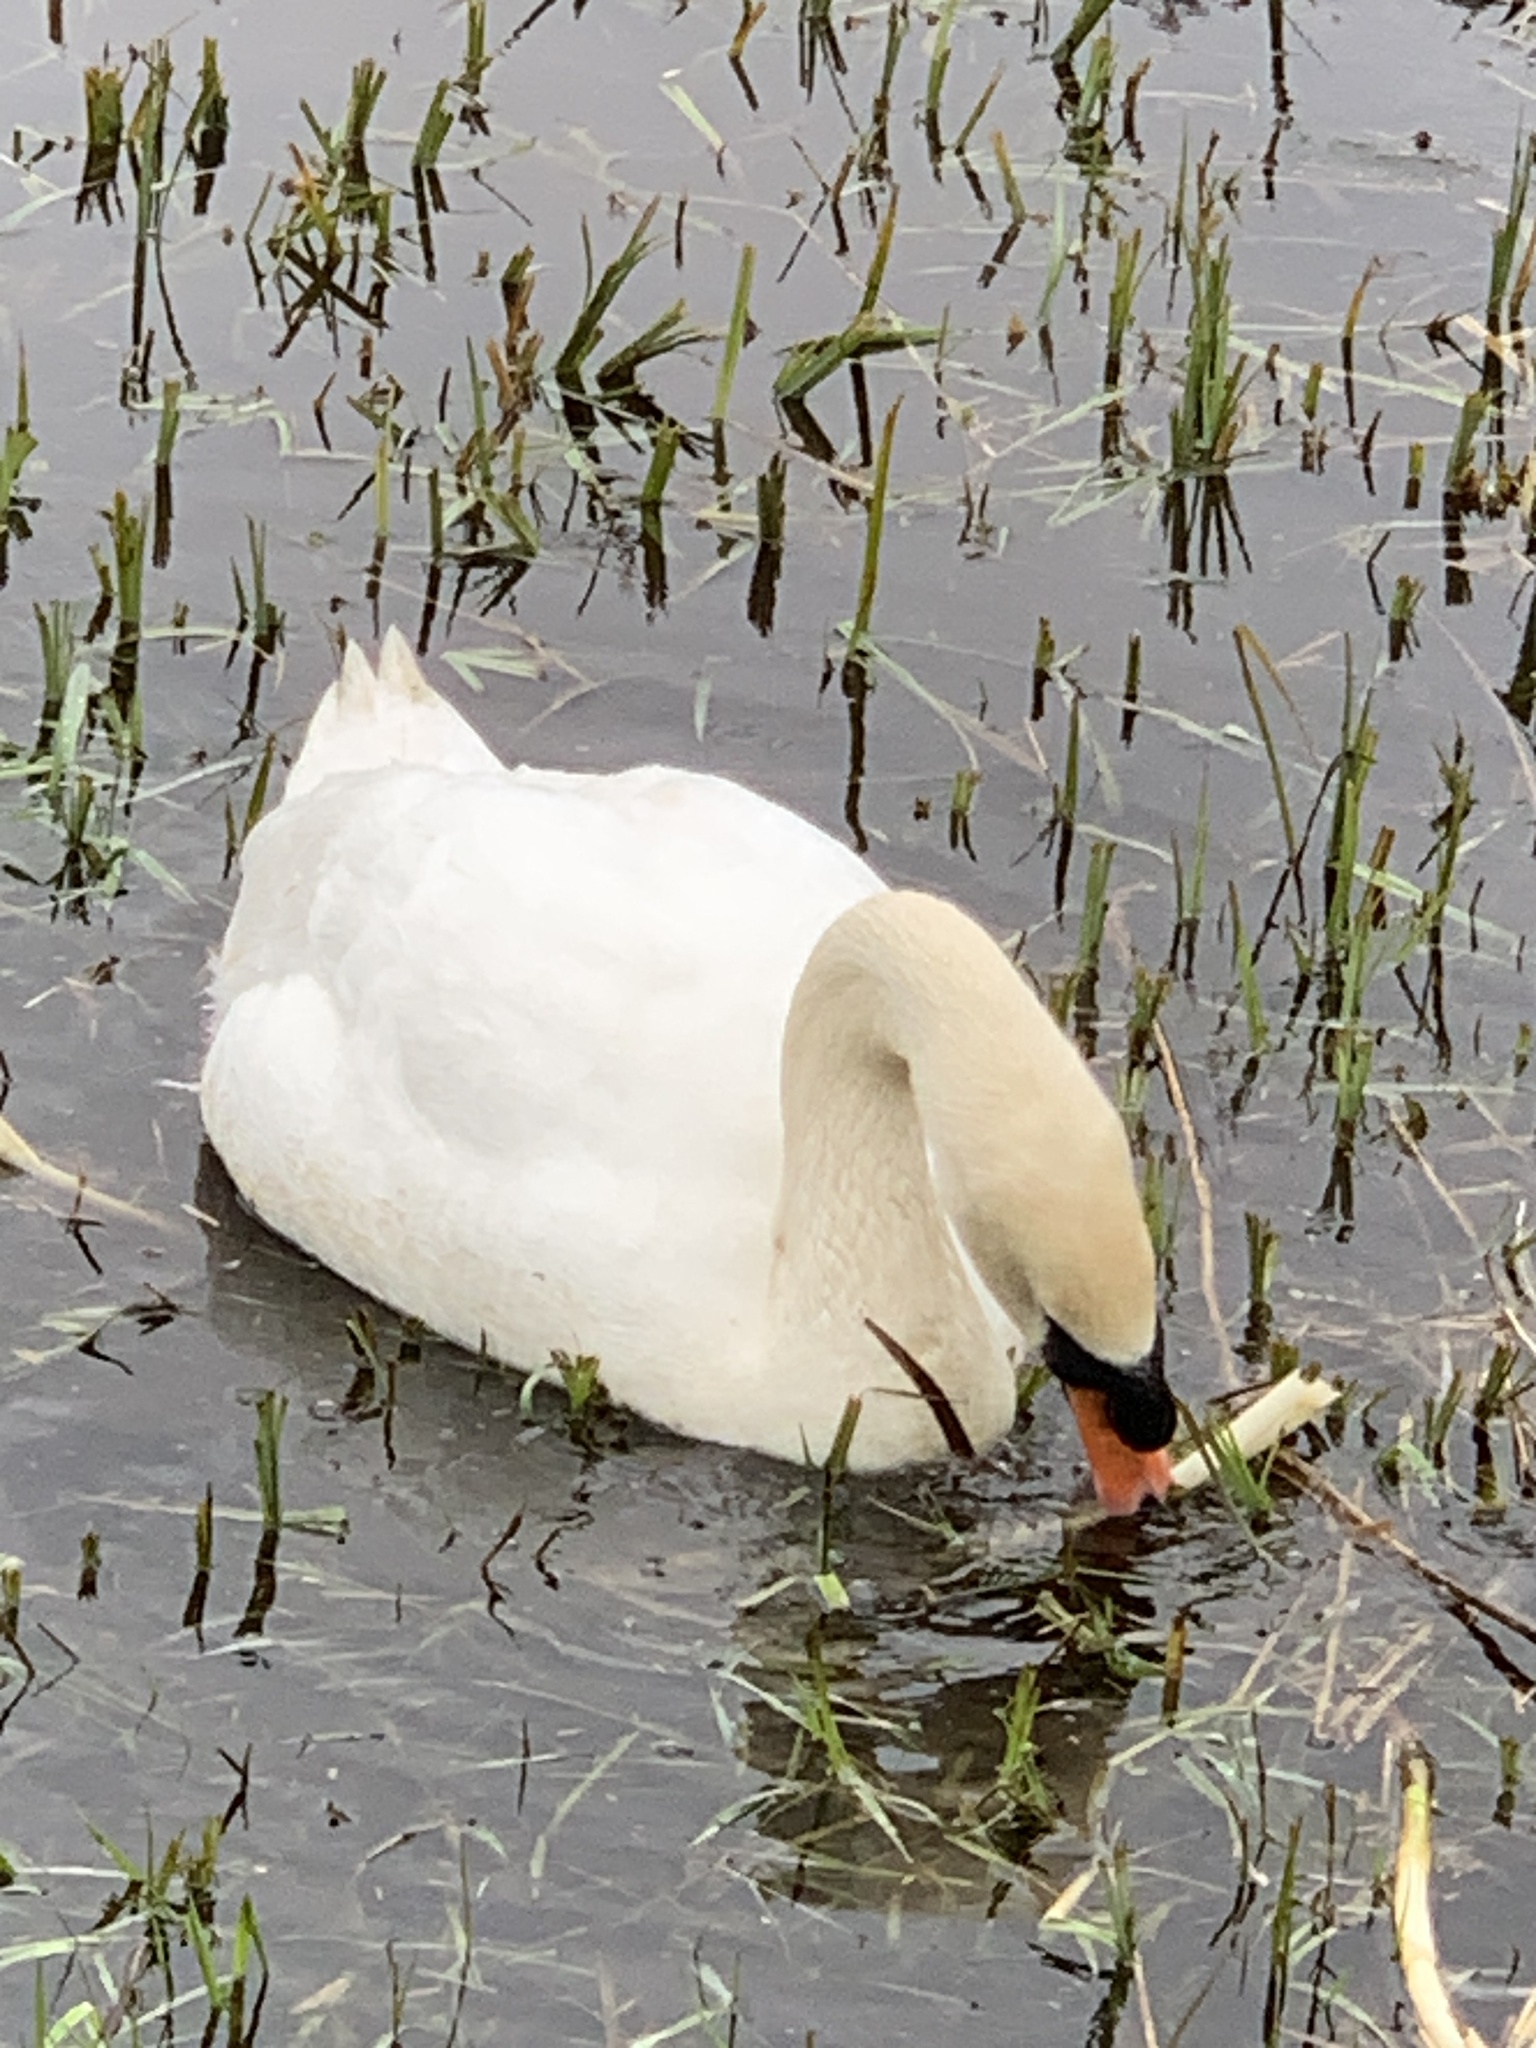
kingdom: Animalia
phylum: Chordata
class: Aves
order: Anseriformes
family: Anatidae
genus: Cygnus
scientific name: Cygnus olor
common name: Mute swan
